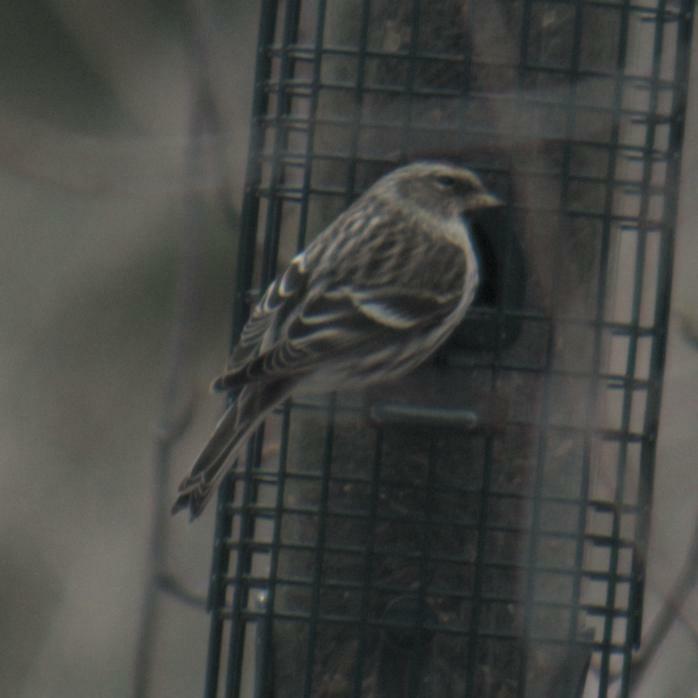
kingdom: Animalia
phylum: Chordata
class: Aves
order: Passeriformes
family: Fringillidae
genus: Acanthis
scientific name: Acanthis flammea
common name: Common redpoll
